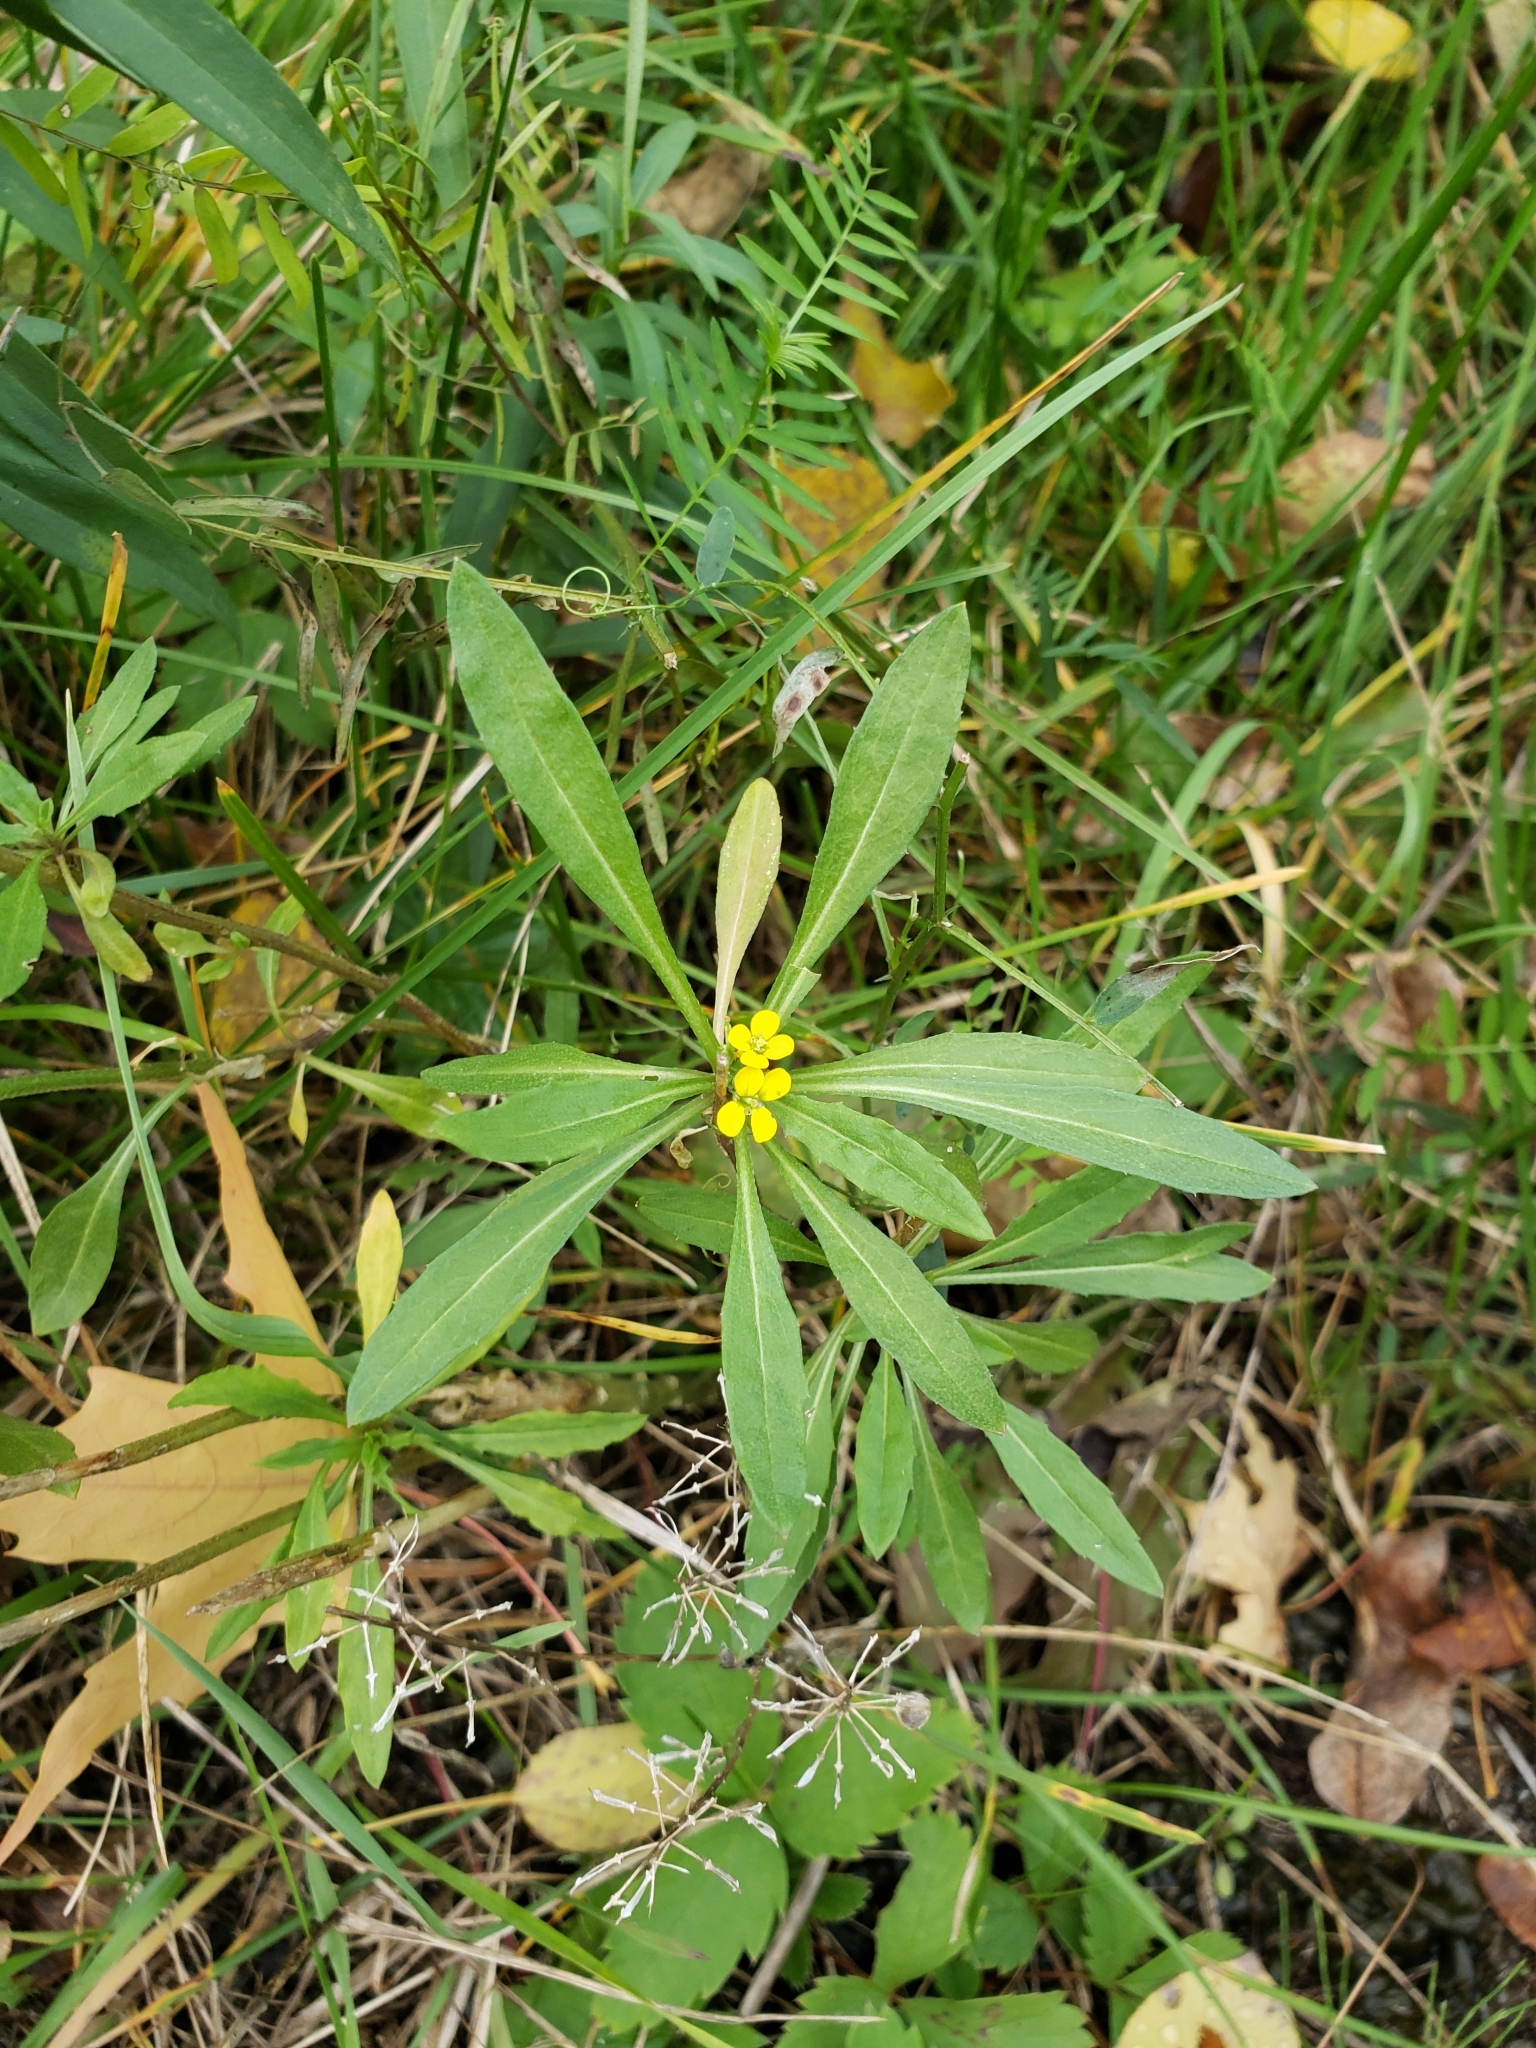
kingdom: Plantae
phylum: Tracheophyta
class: Magnoliopsida
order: Brassicales
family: Brassicaceae
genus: Erysimum
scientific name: Erysimum cheiranthoides
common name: Treacle mustard
